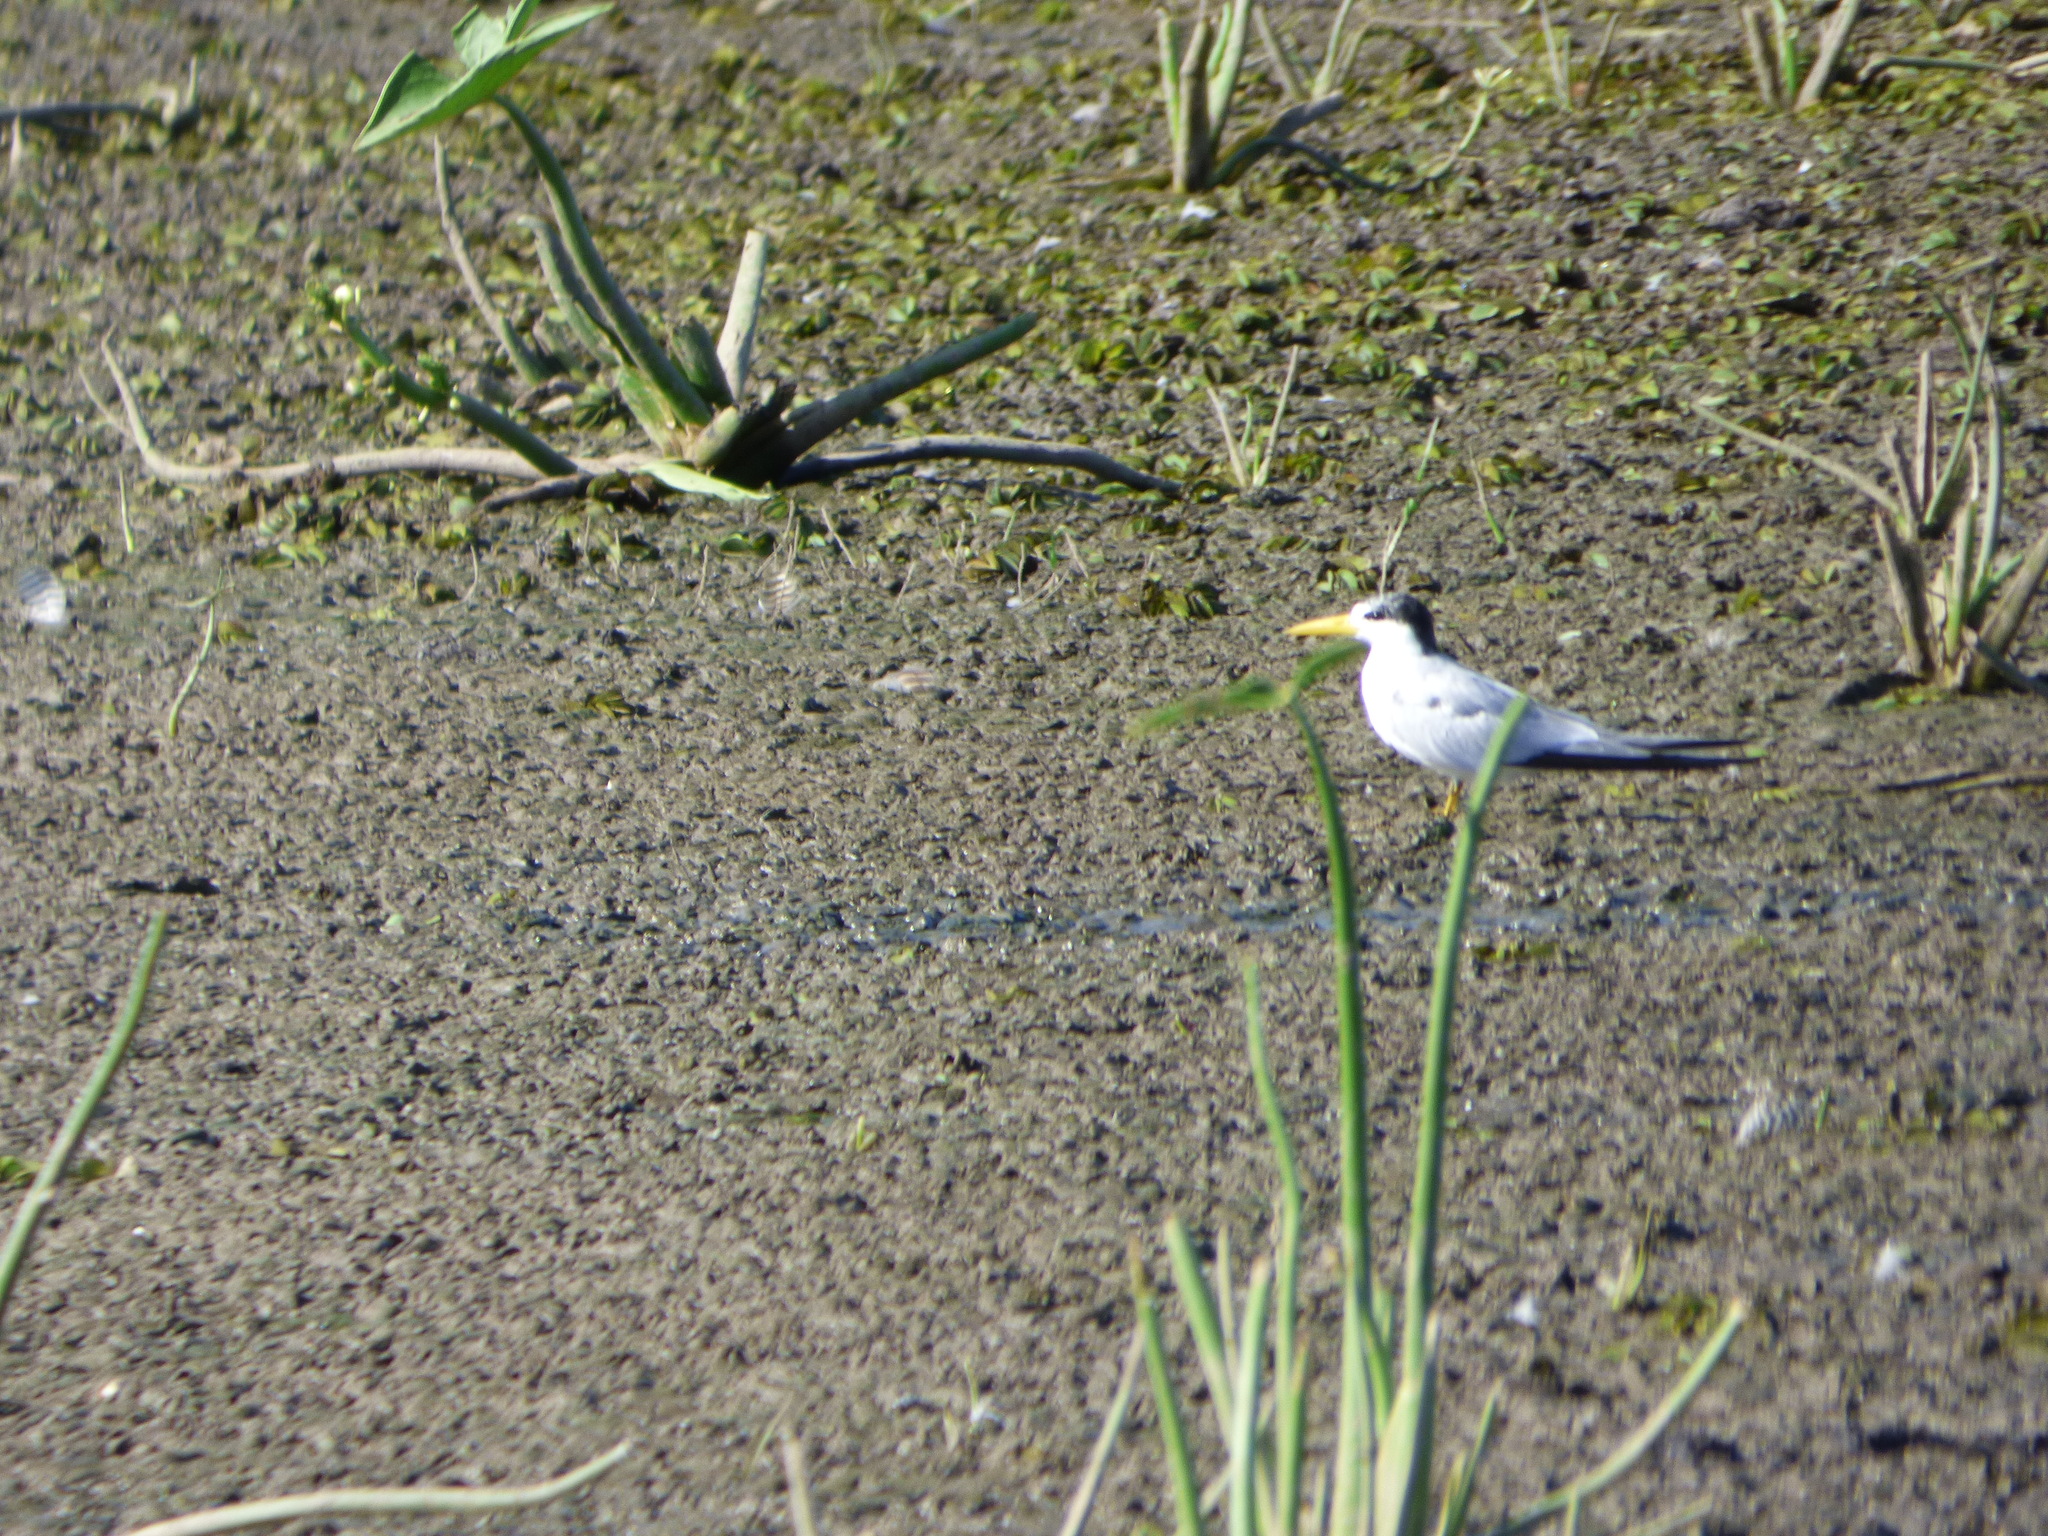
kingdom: Animalia
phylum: Chordata
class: Aves
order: Charadriiformes
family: Laridae
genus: Sternula
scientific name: Sternula superciliaris
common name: Yellow-billed tern
